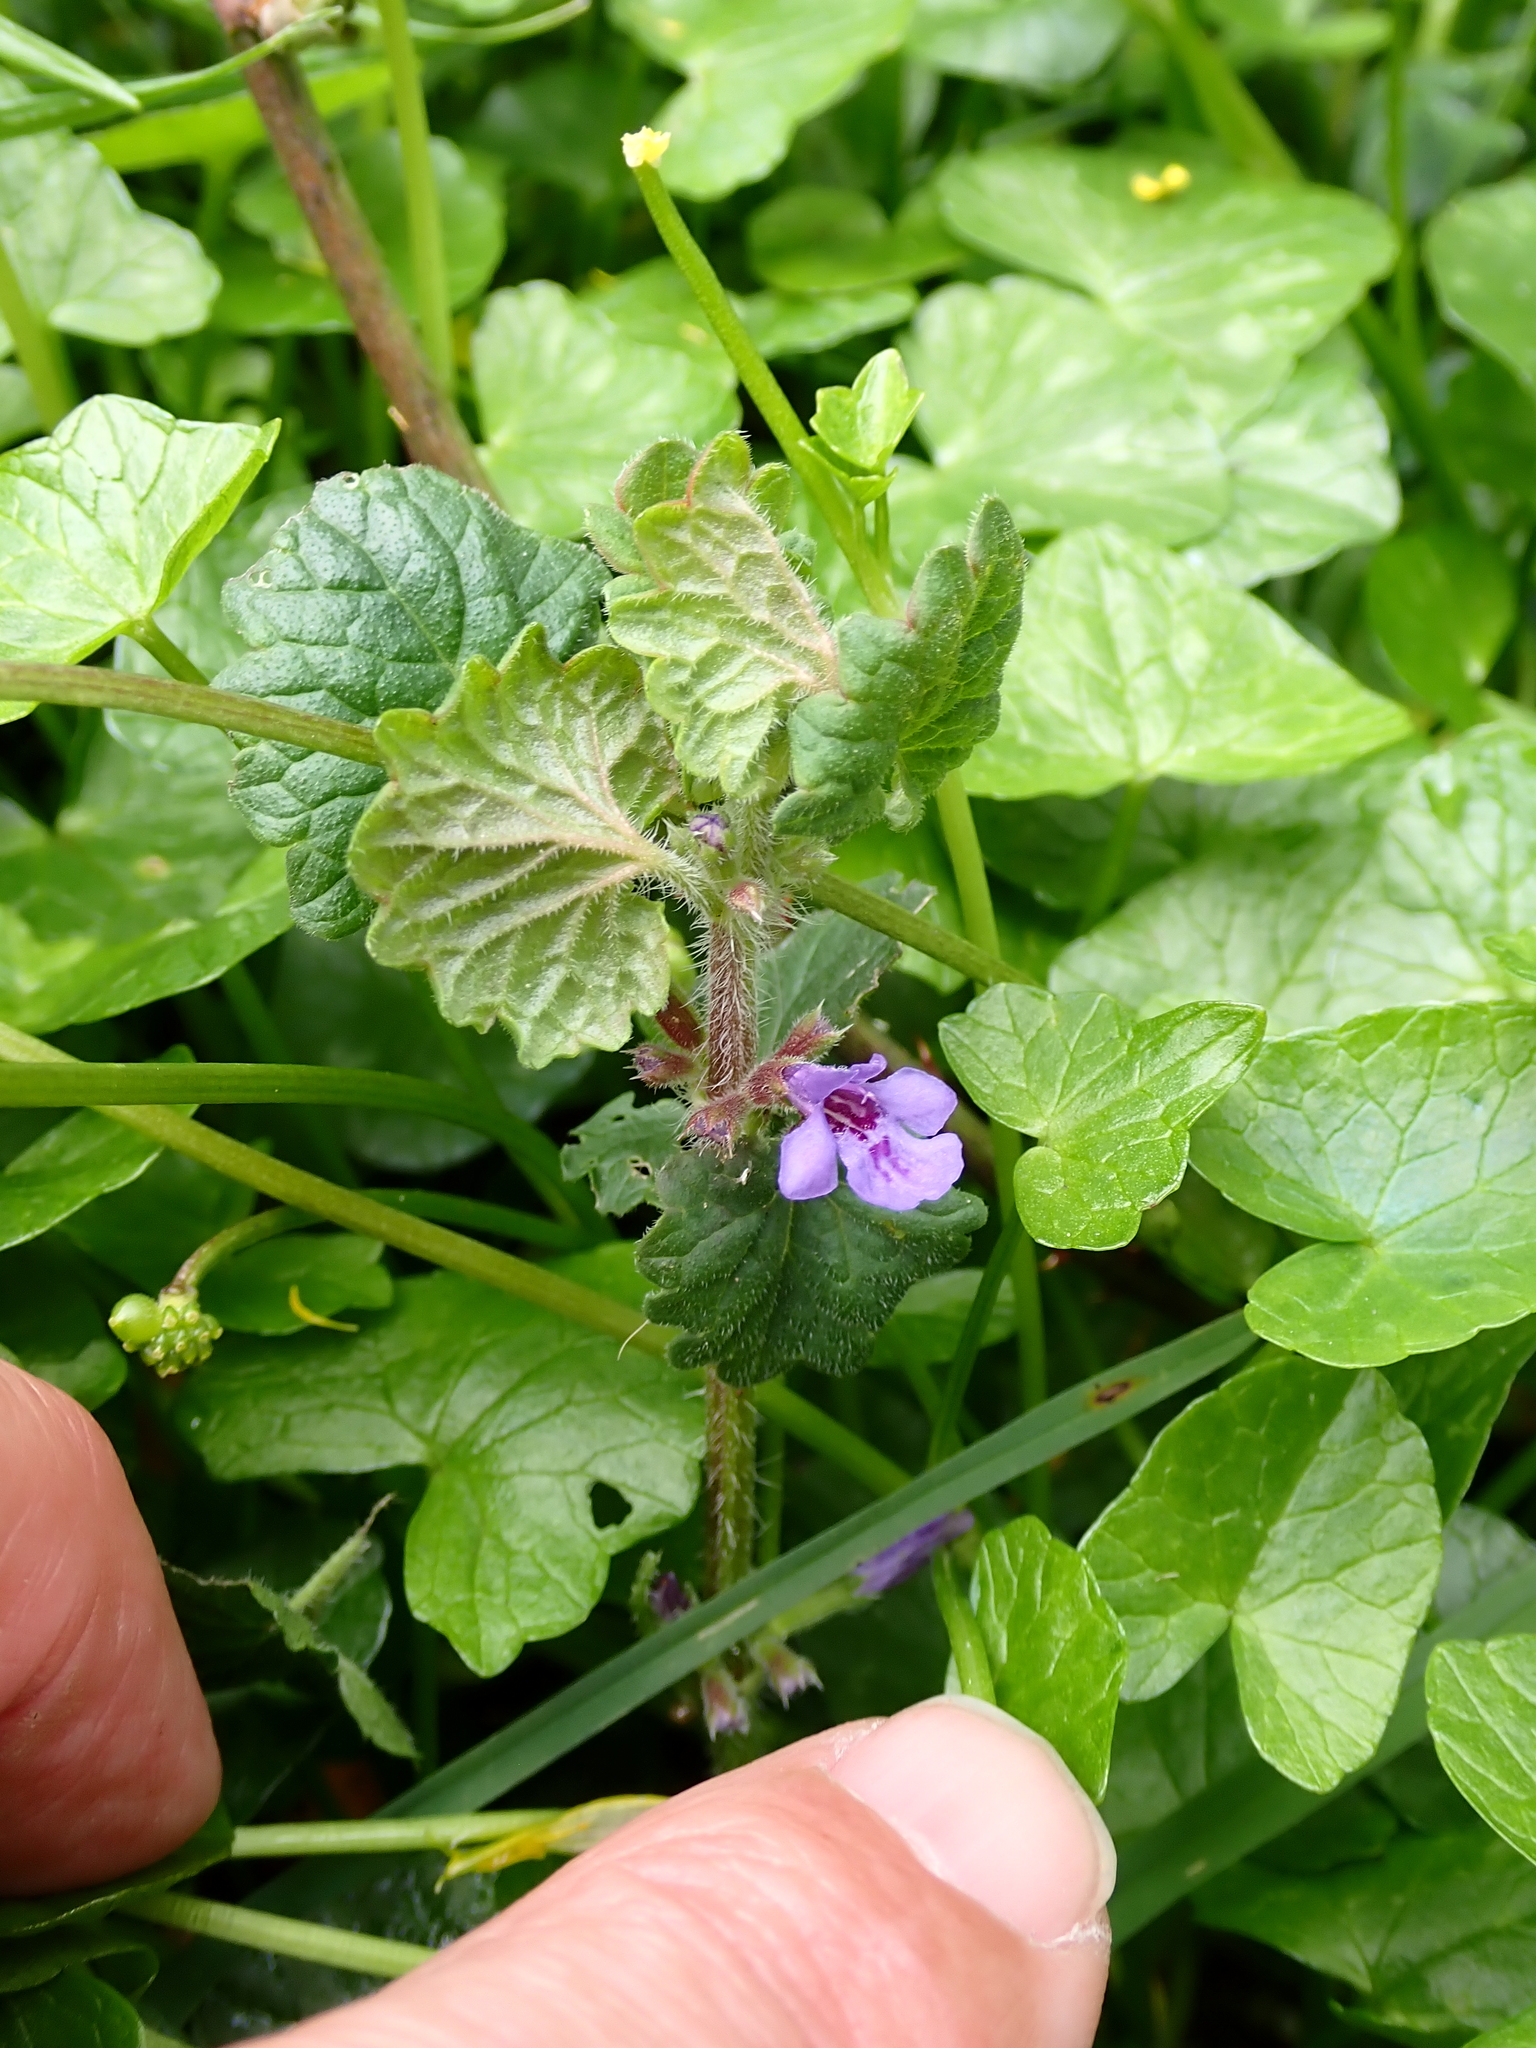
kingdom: Plantae
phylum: Tracheophyta
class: Magnoliopsida
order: Lamiales
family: Lamiaceae
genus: Glechoma
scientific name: Glechoma hederacea
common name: Ground ivy
